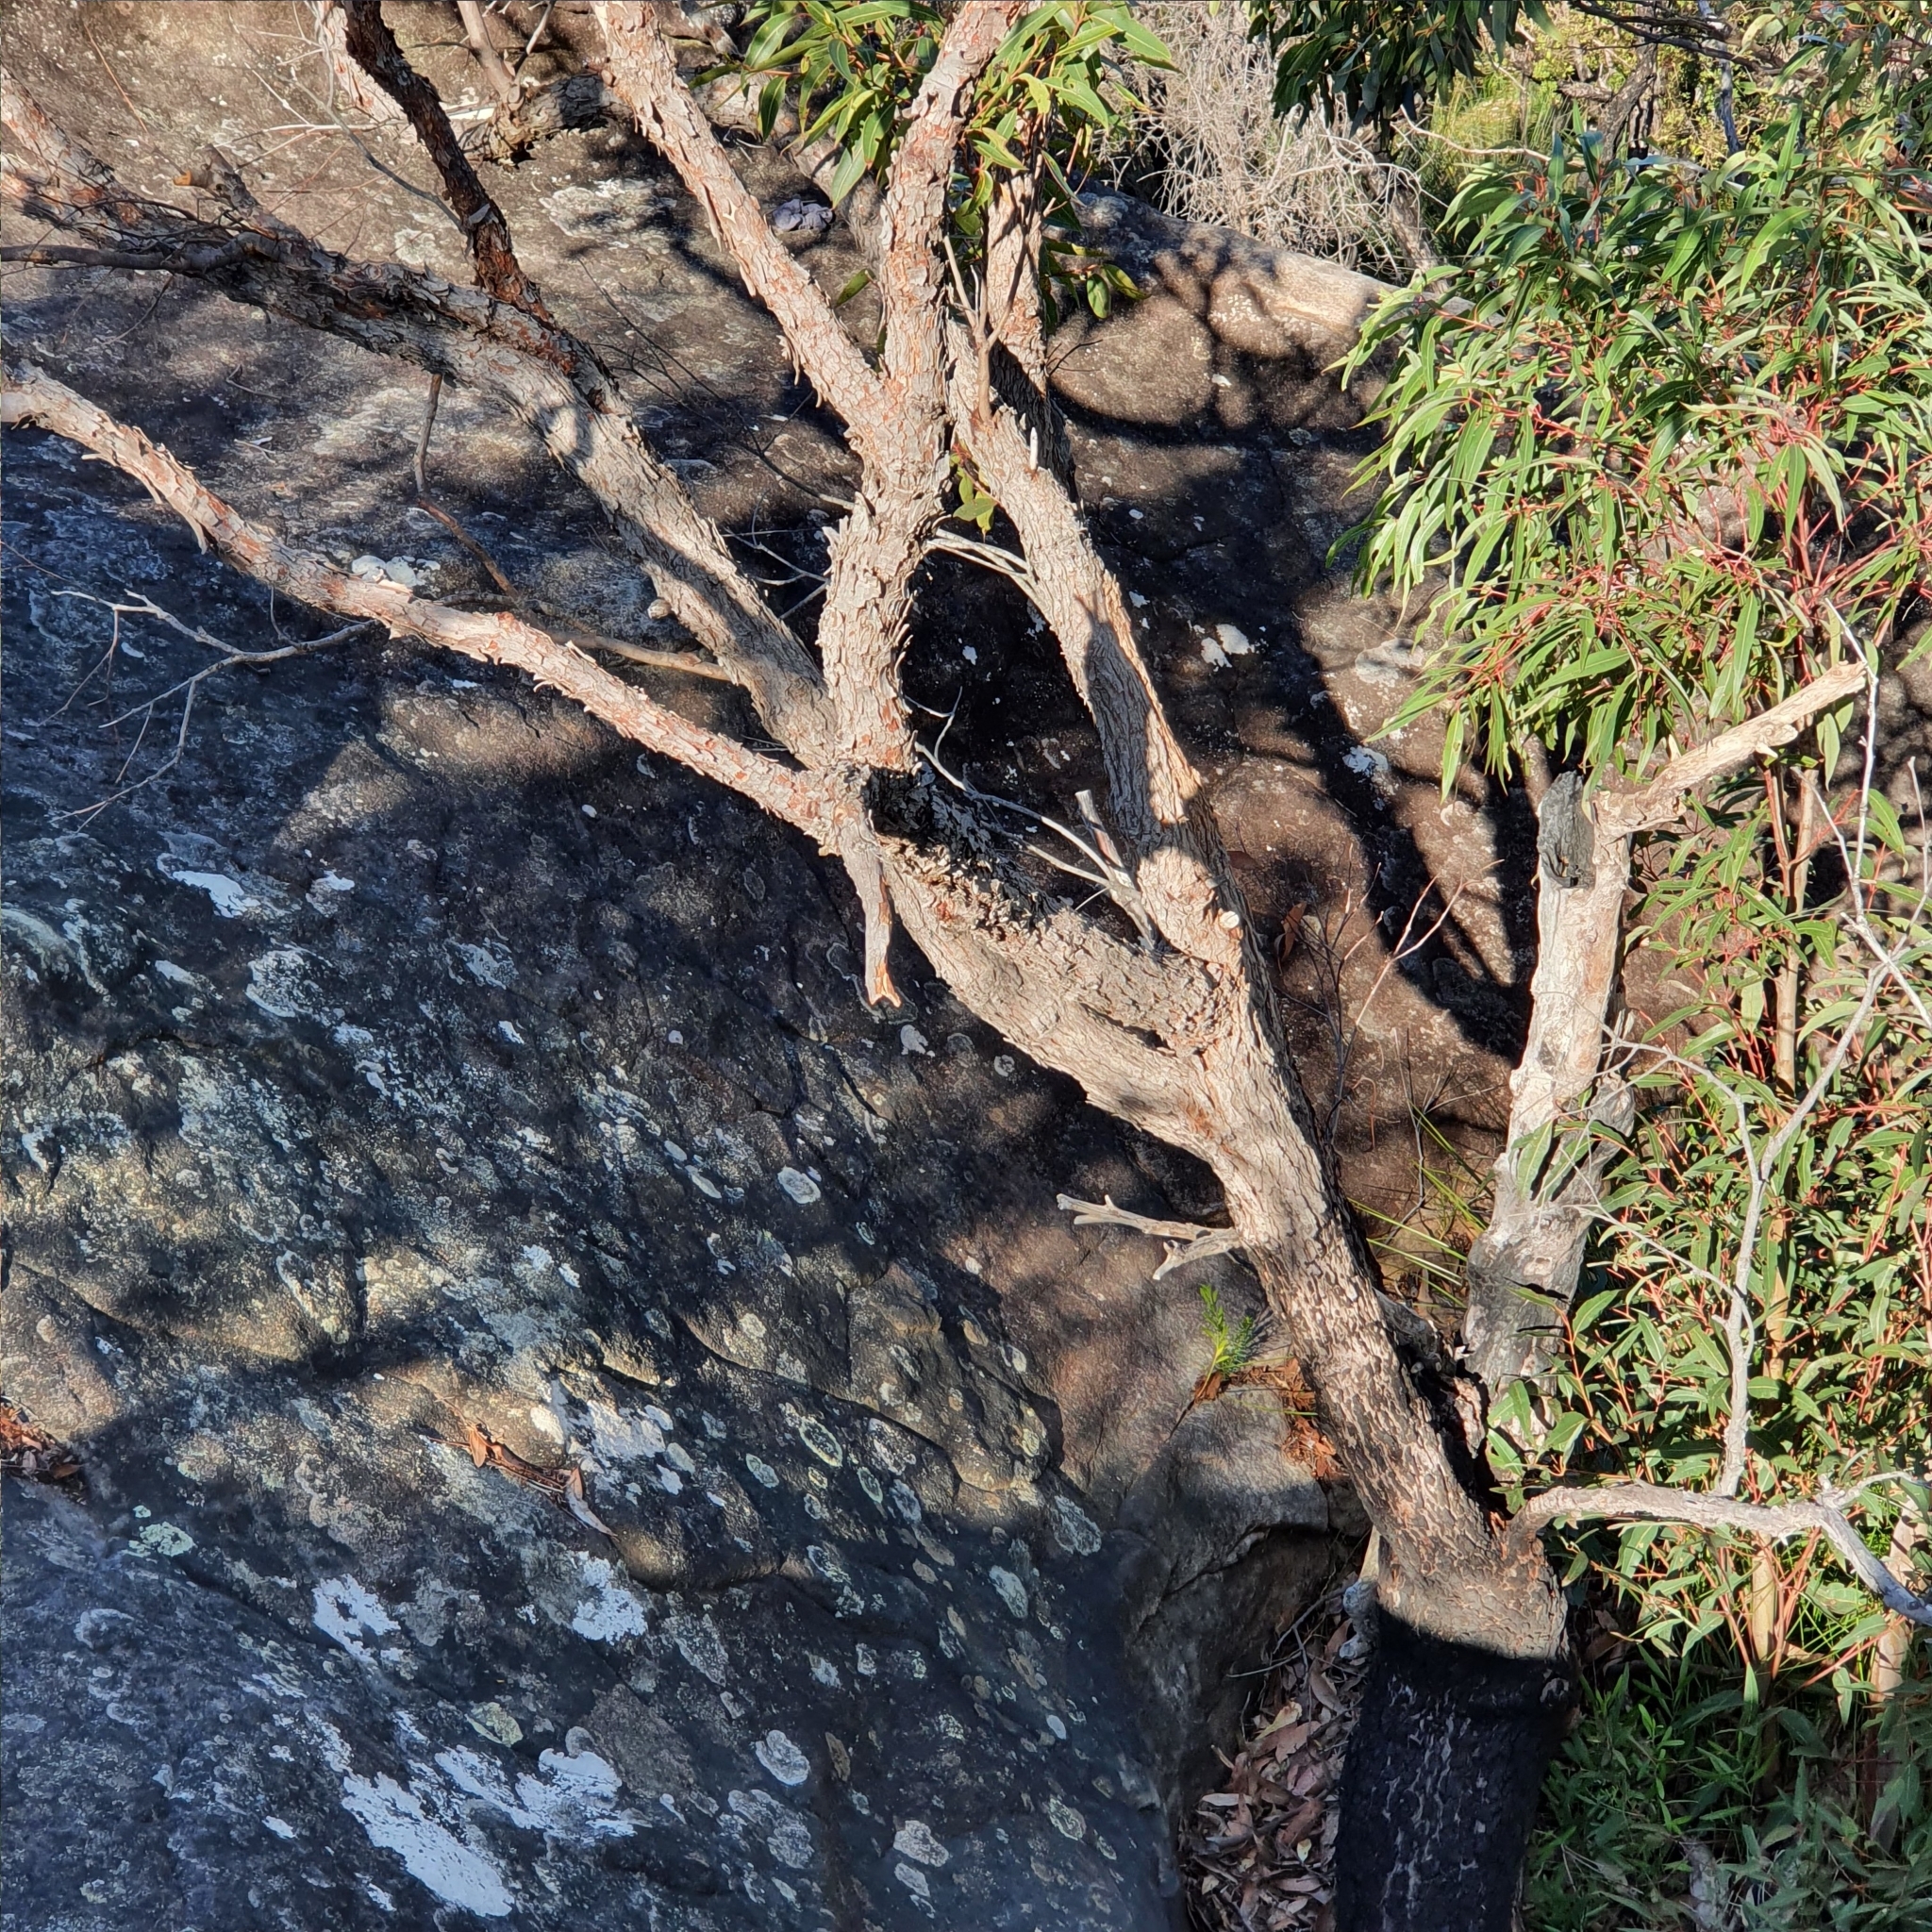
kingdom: Plantae
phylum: Tracheophyta
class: Magnoliopsida
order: Myrtales
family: Myrtaceae
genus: Corymbia
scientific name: Corymbia gummifera
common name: Red bloodwood
